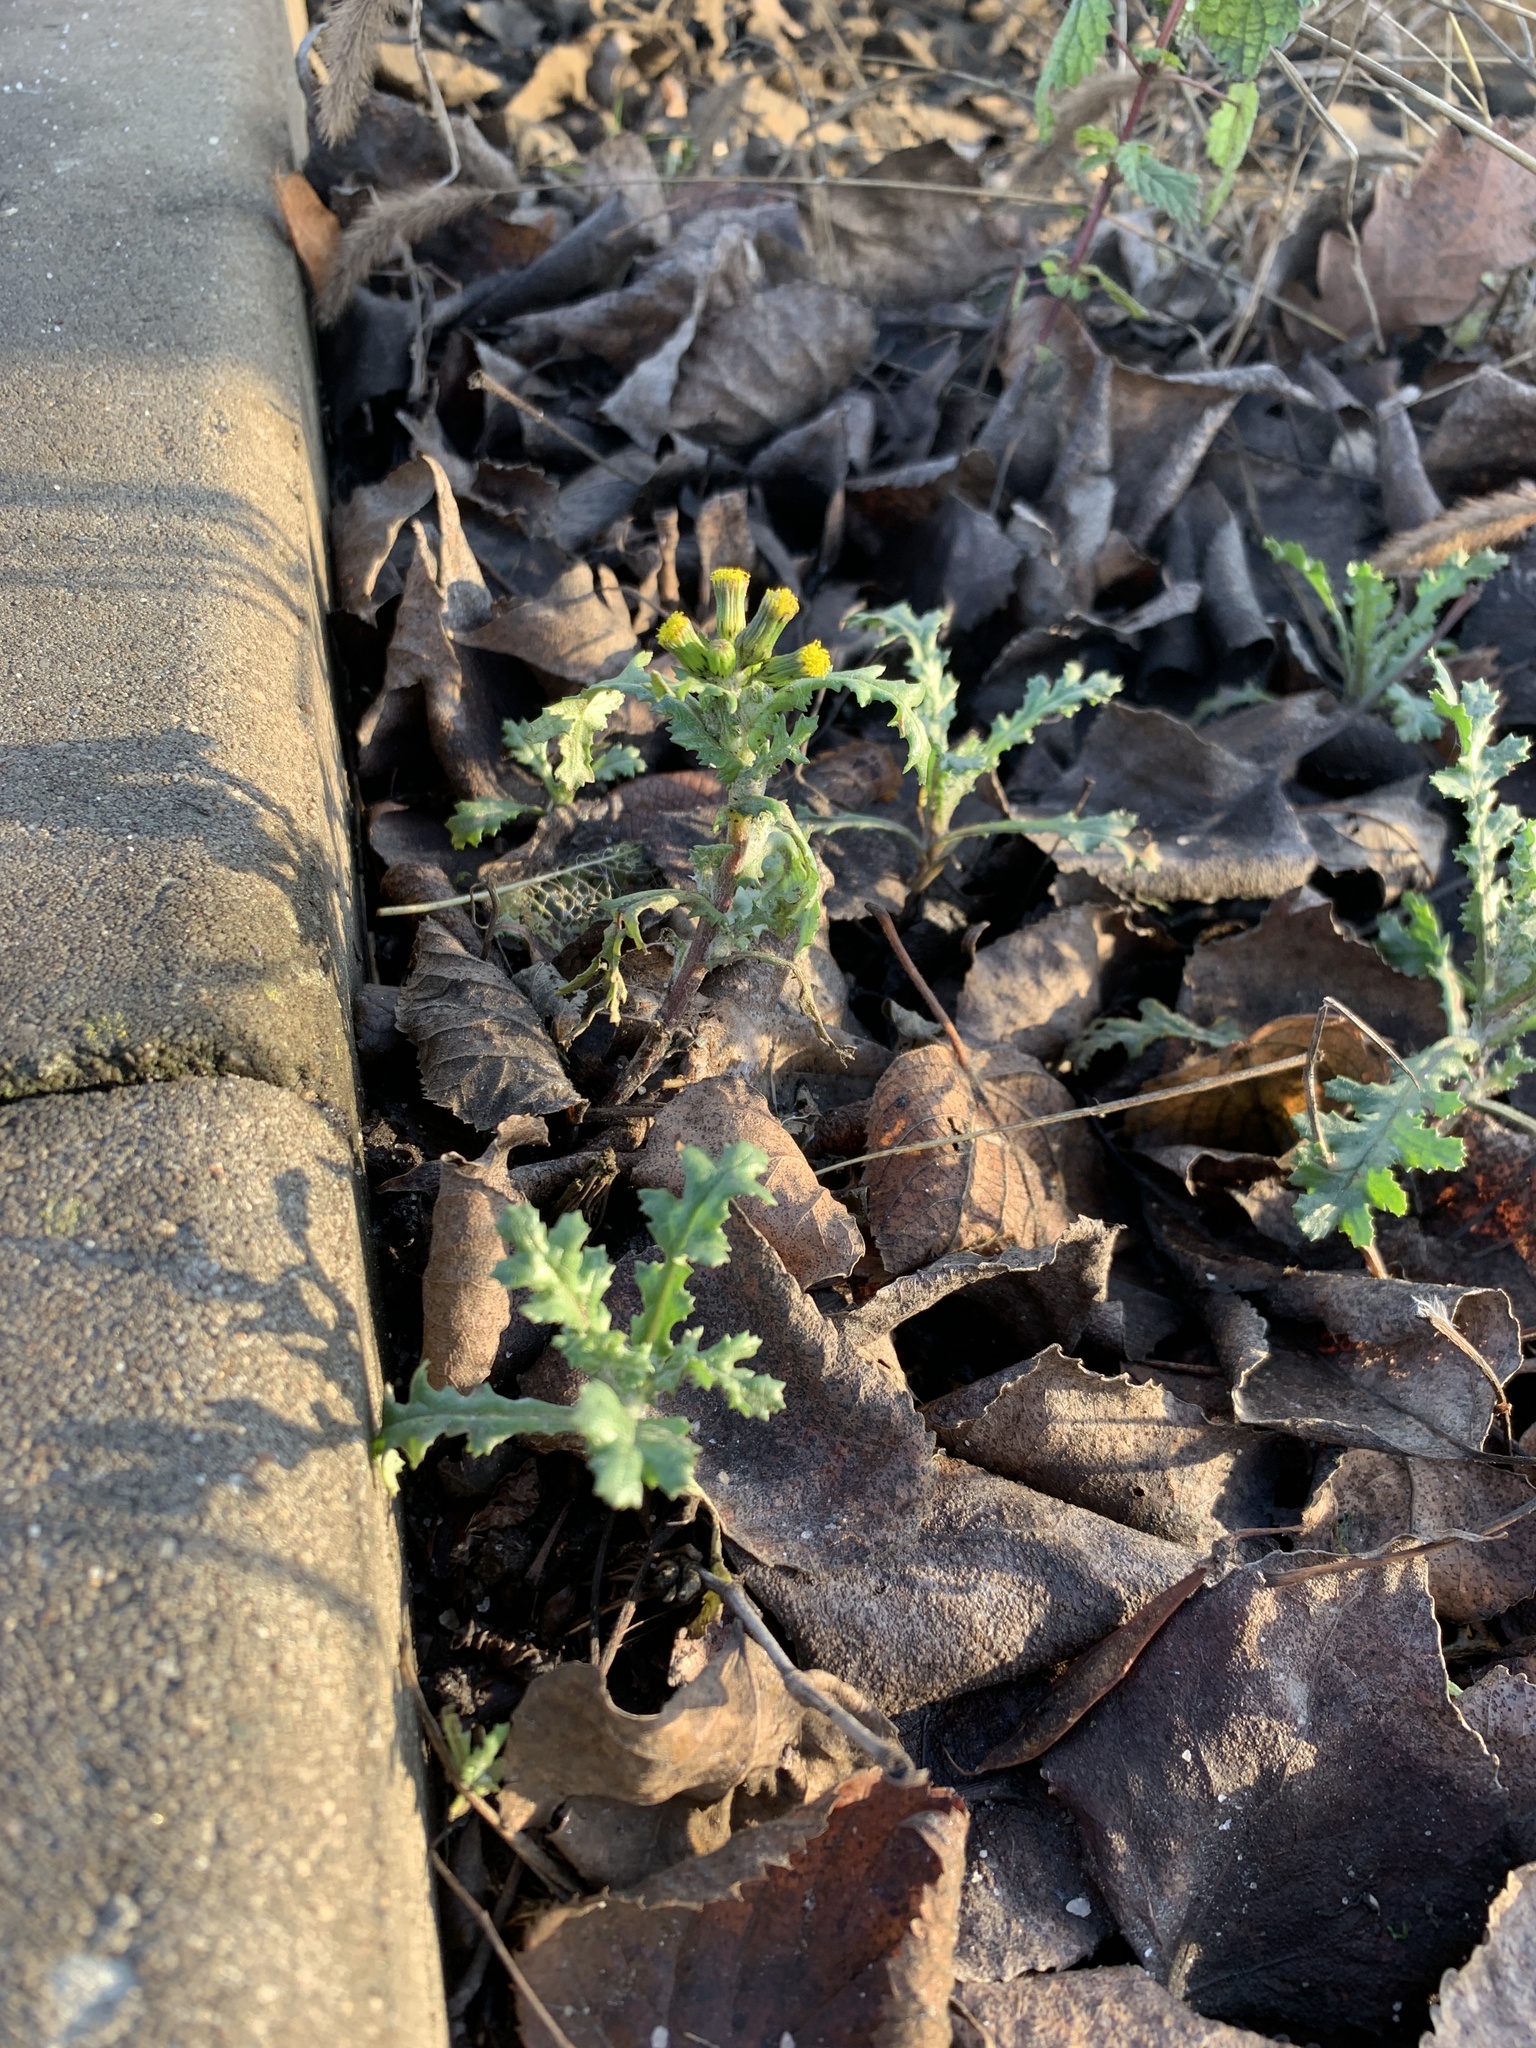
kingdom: Plantae
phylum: Tracheophyta
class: Magnoliopsida
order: Asterales
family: Asteraceae
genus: Senecio
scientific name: Senecio vulgaris
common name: Old-man-in-the-spring
